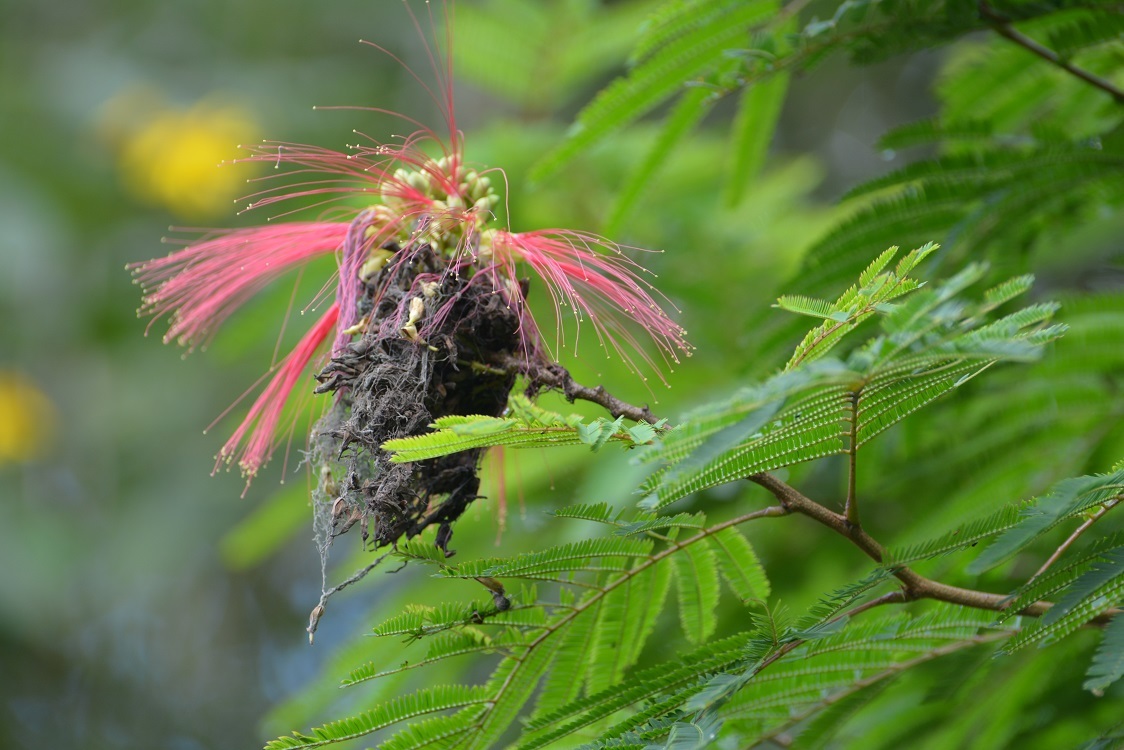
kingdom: Plantae
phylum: Tracheophyta
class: Magnoliopsida
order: Fabales
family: Fabaceae
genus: Calliandra
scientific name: Calliandra houstoniana
